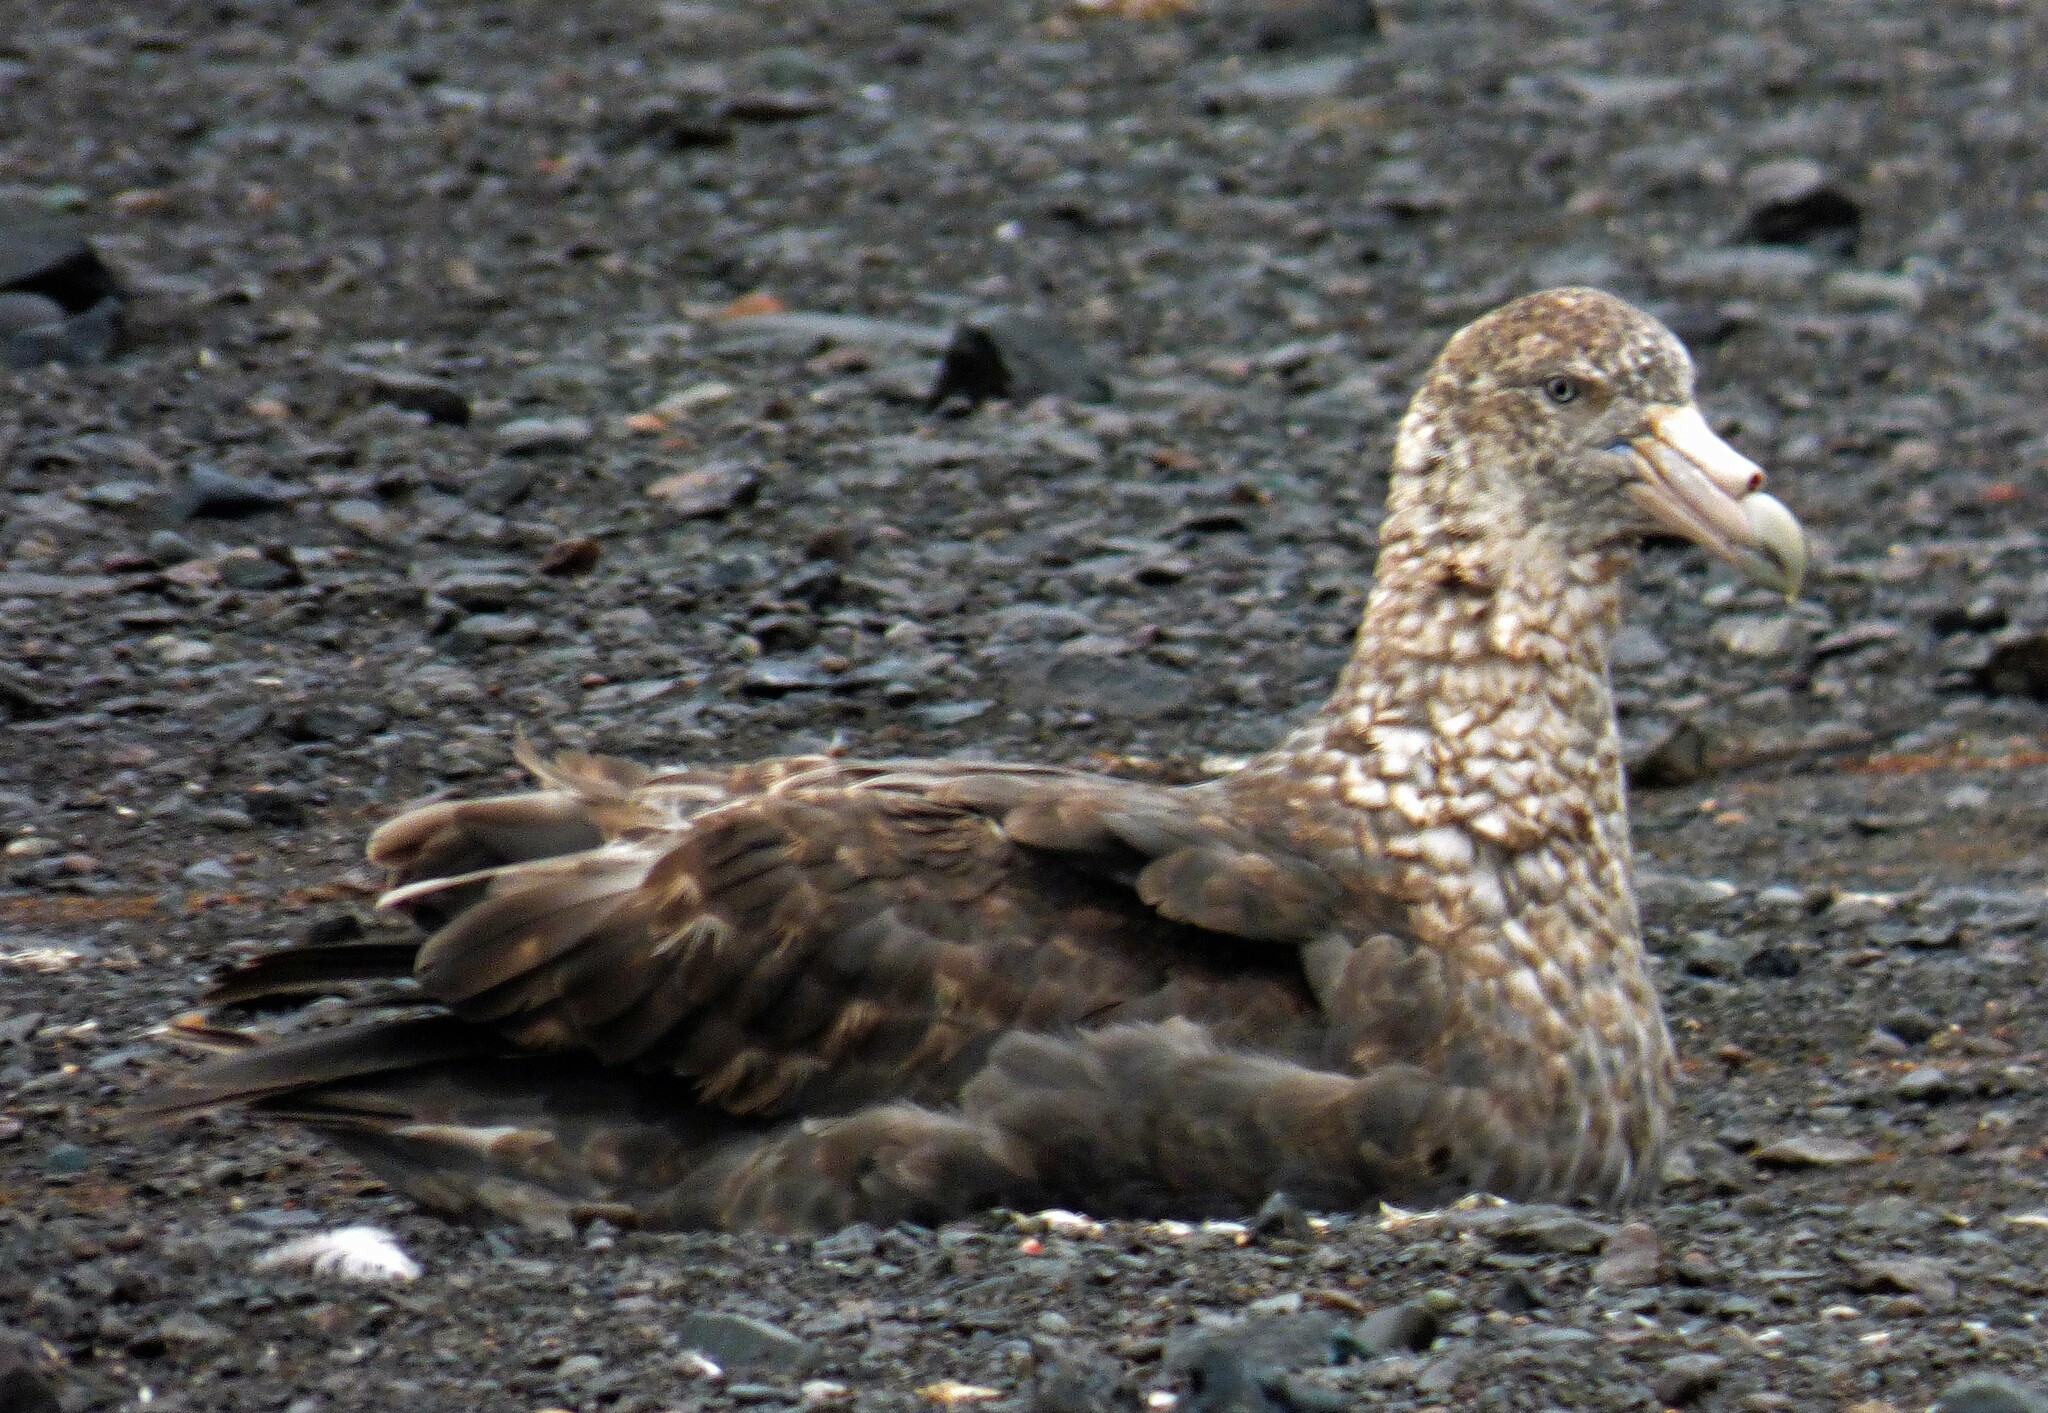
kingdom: Animalia
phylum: Chordata
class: Aves
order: Procellariiformes
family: Procellariidae
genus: Macronectes
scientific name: Macronectes giganteus
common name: Southern giant petrel
